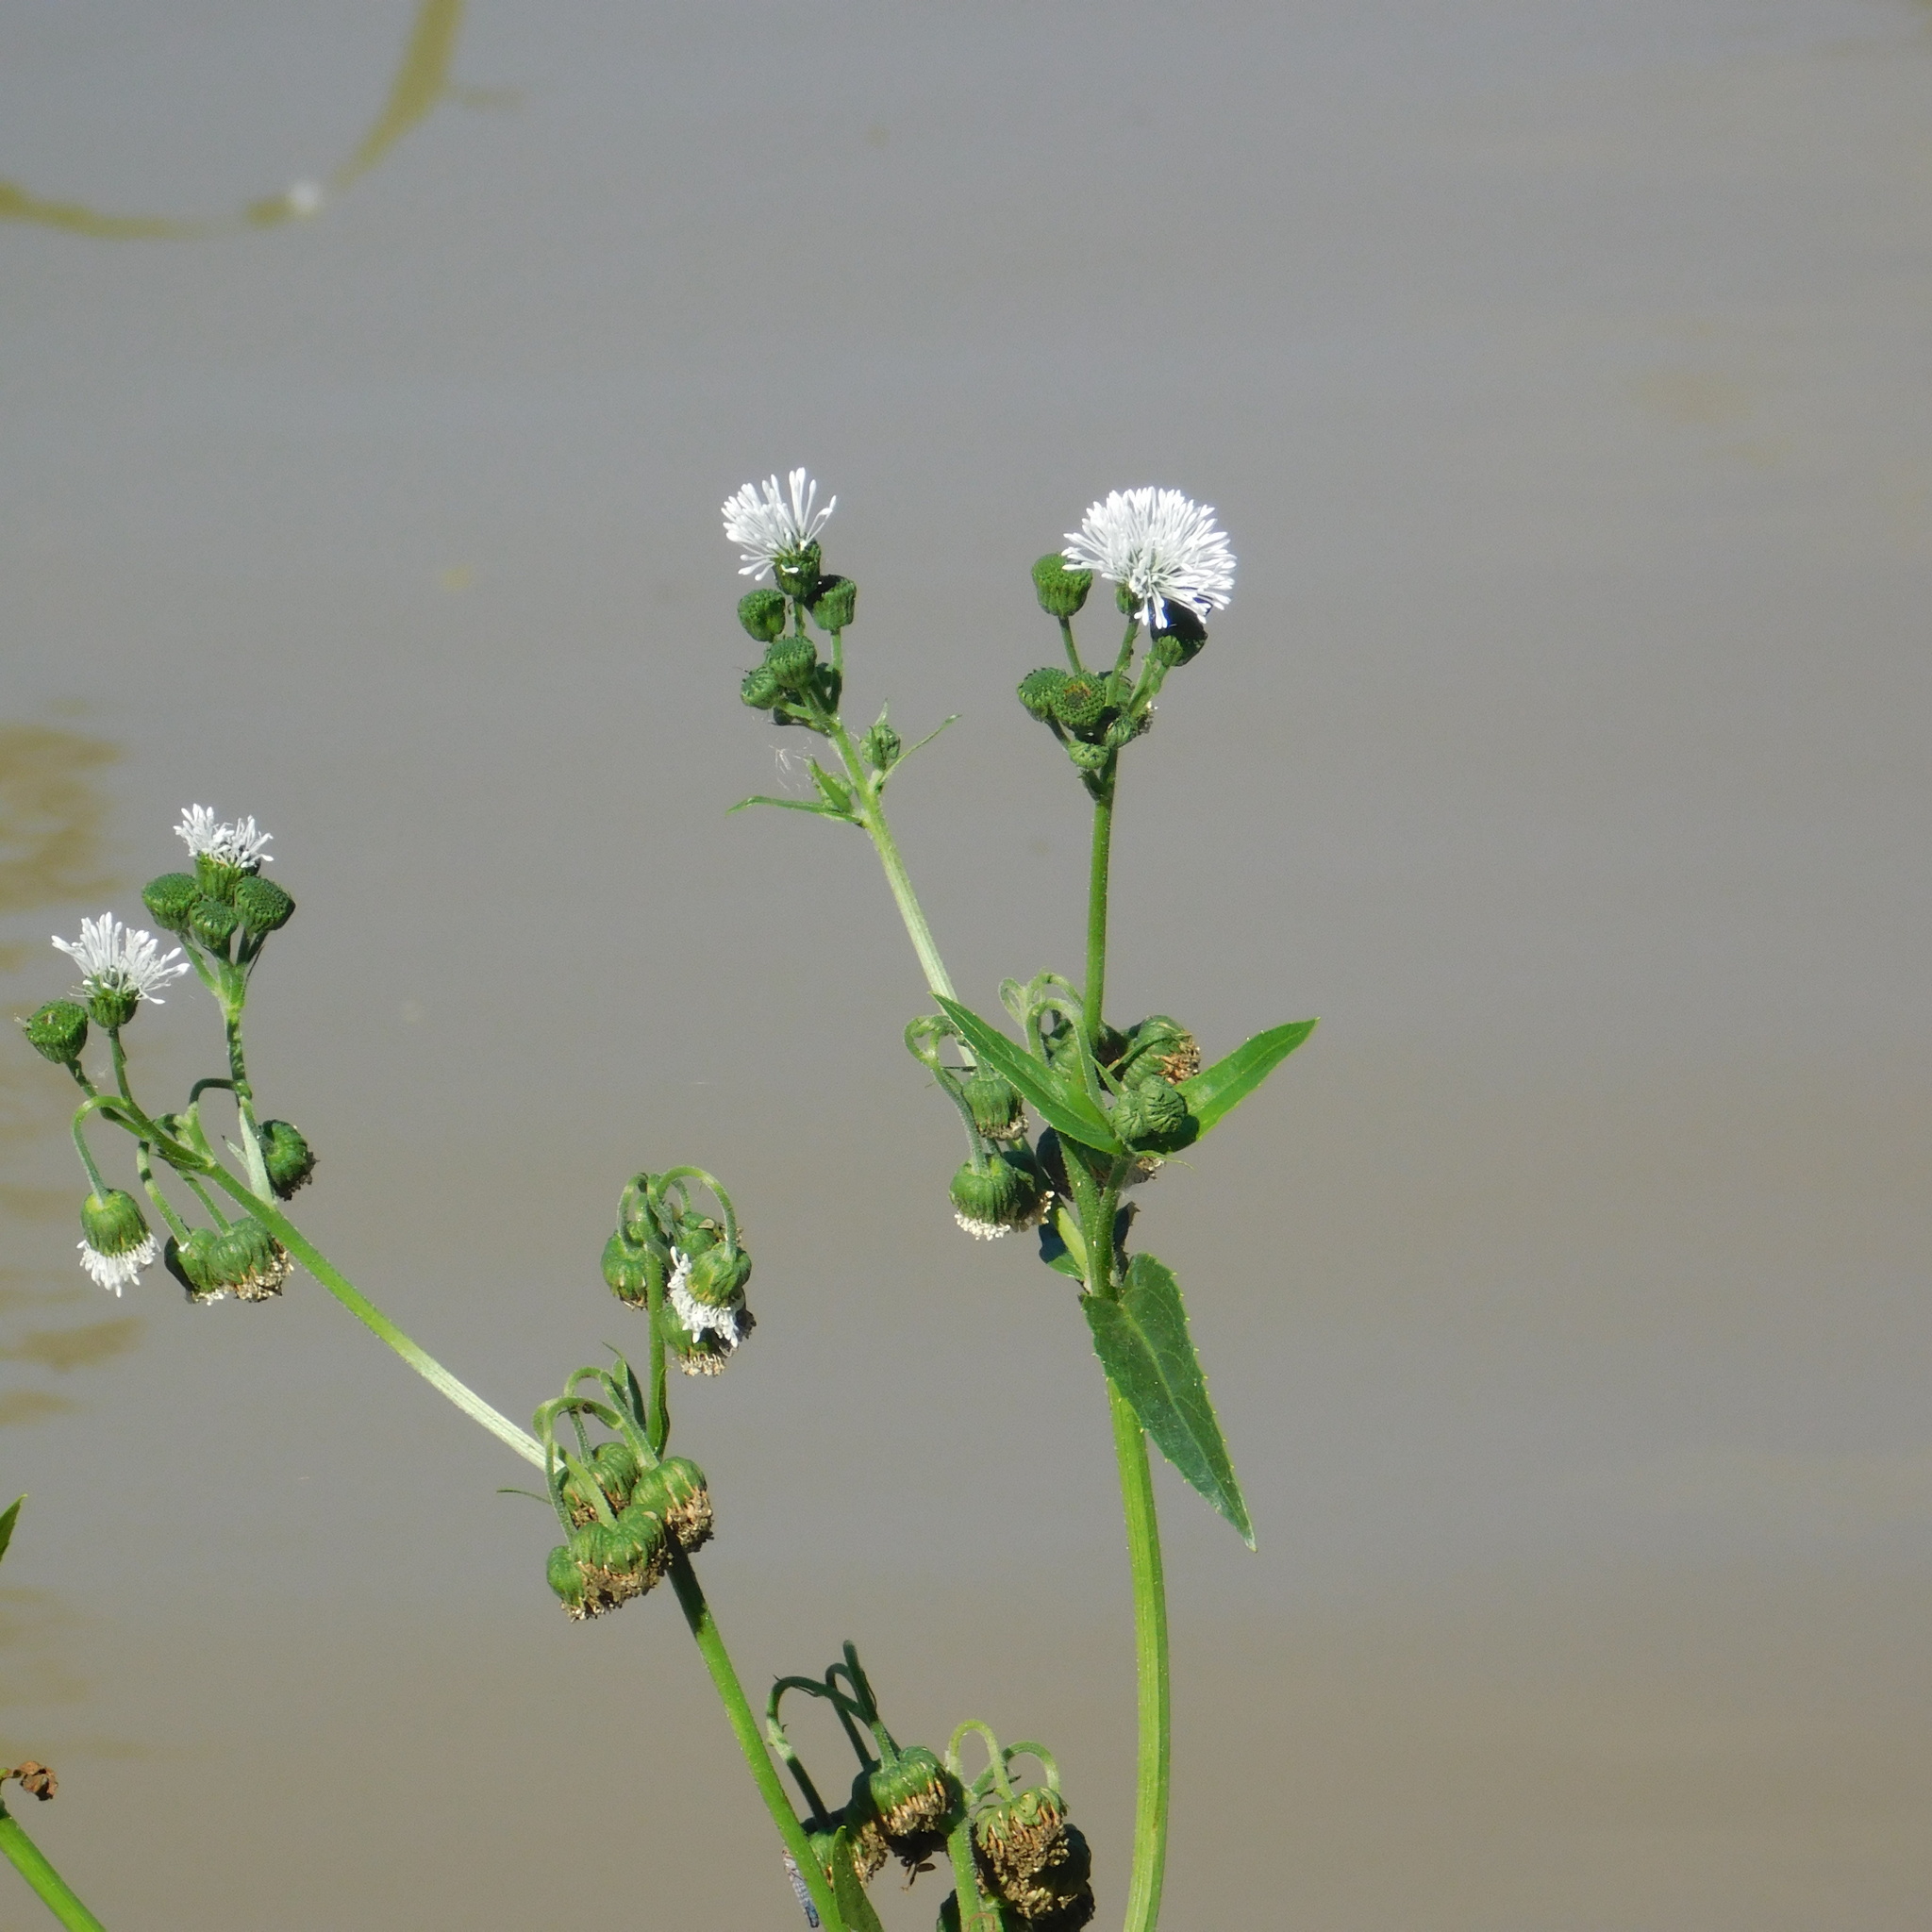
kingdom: Plantae
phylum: Tracheophyta
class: Magnoliopsida
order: Asterales
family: Asteraceae
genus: Gymnocoronis
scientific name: Gymnocoronis spilanthoides
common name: Senegal teaplant
